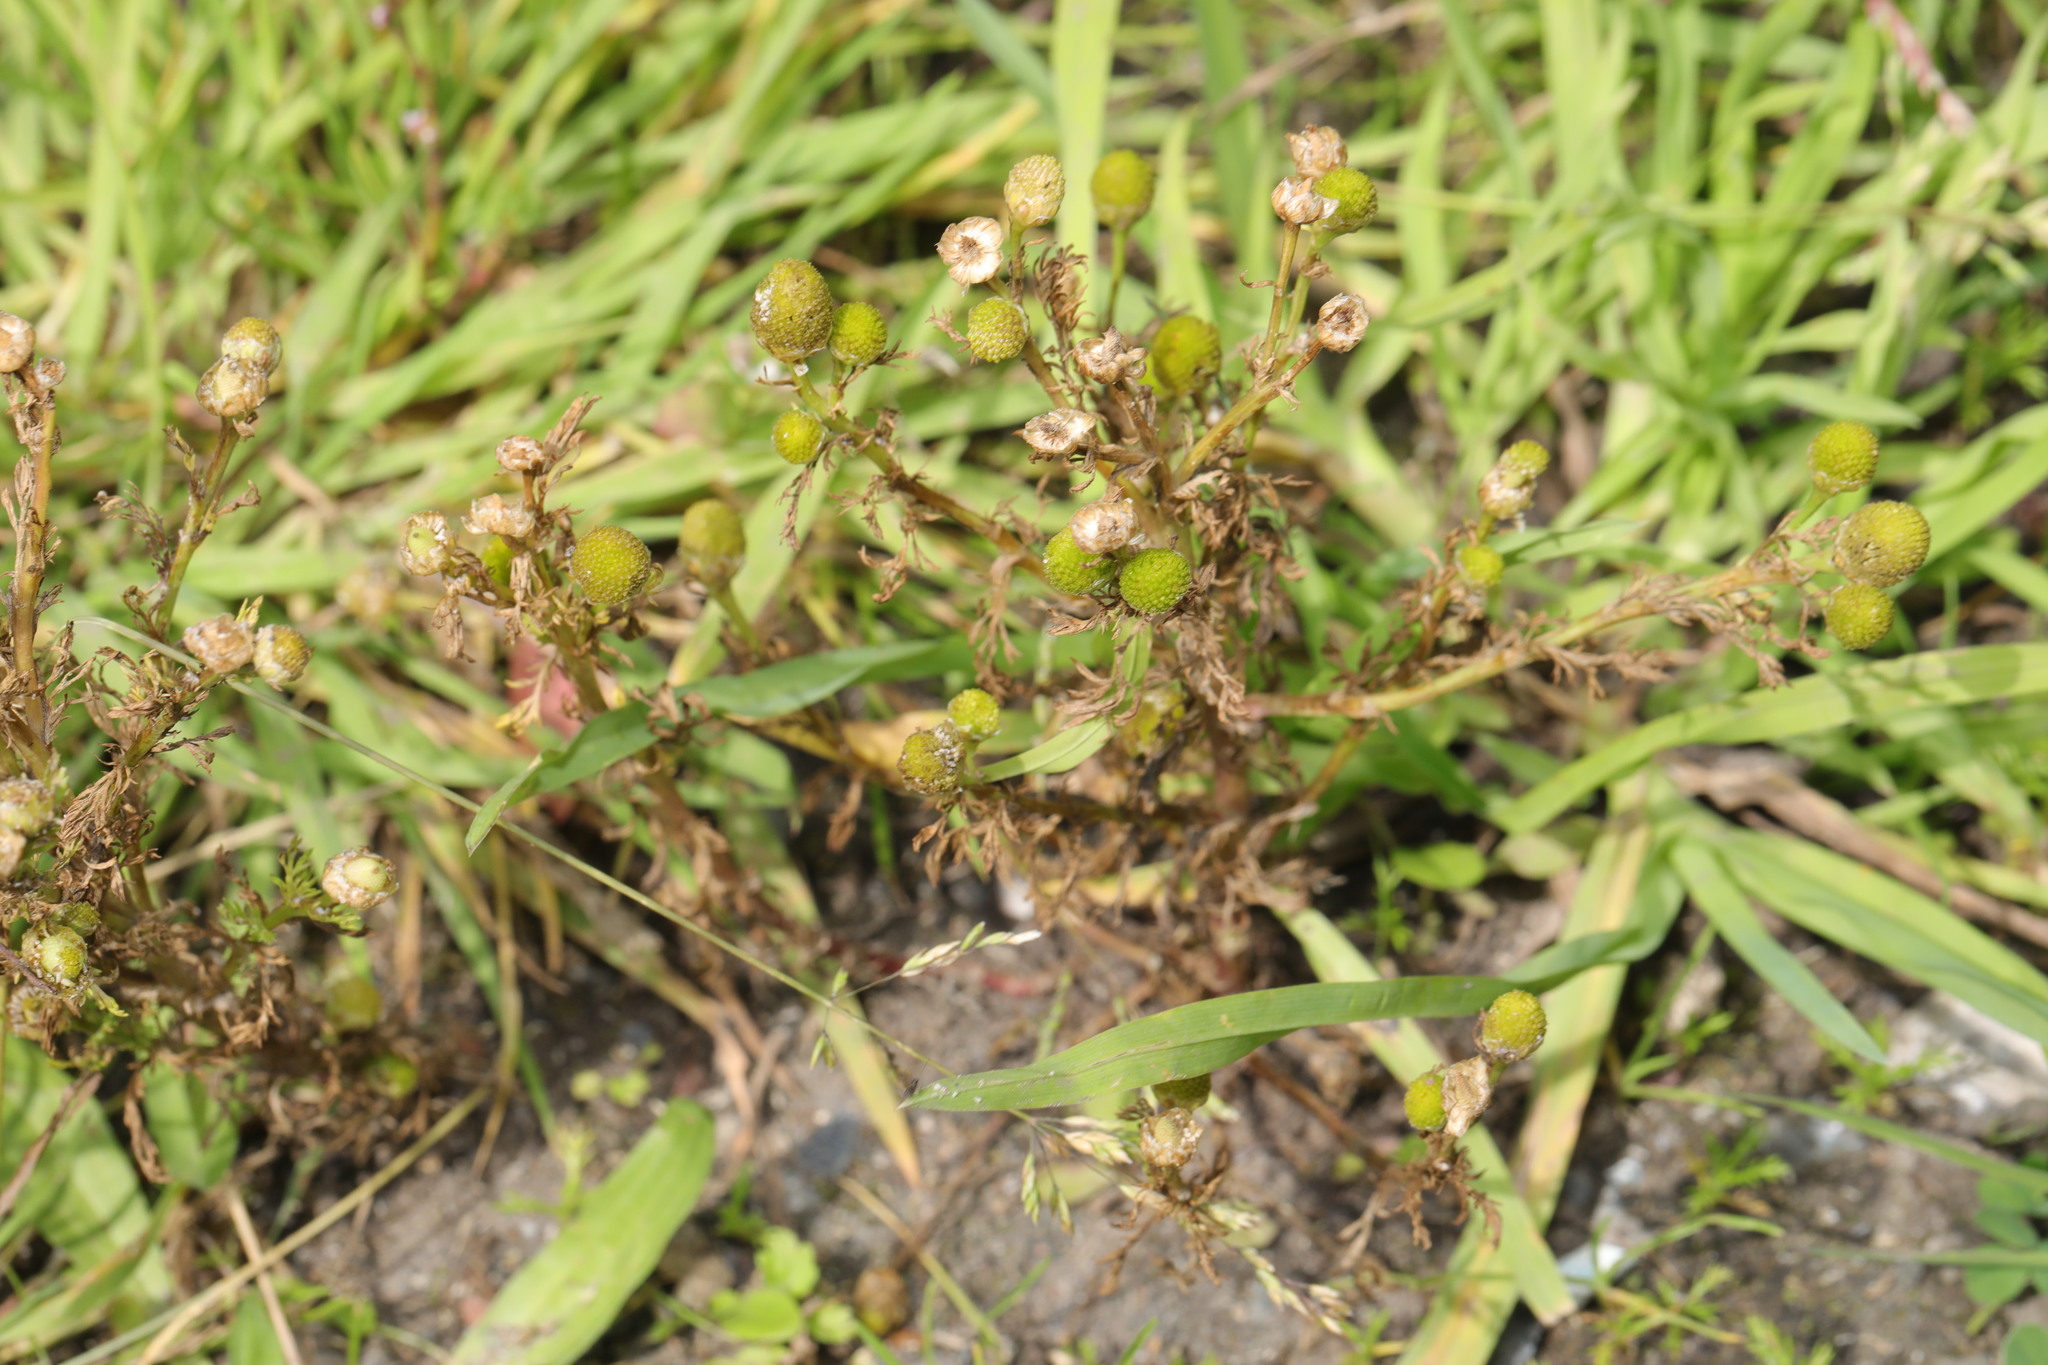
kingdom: Plantae
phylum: Tracheophyta
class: Magnoliopsida
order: Asterales
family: Asteraceae
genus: Matricaria
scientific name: Matricaria discoidea
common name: Disc mayweed
